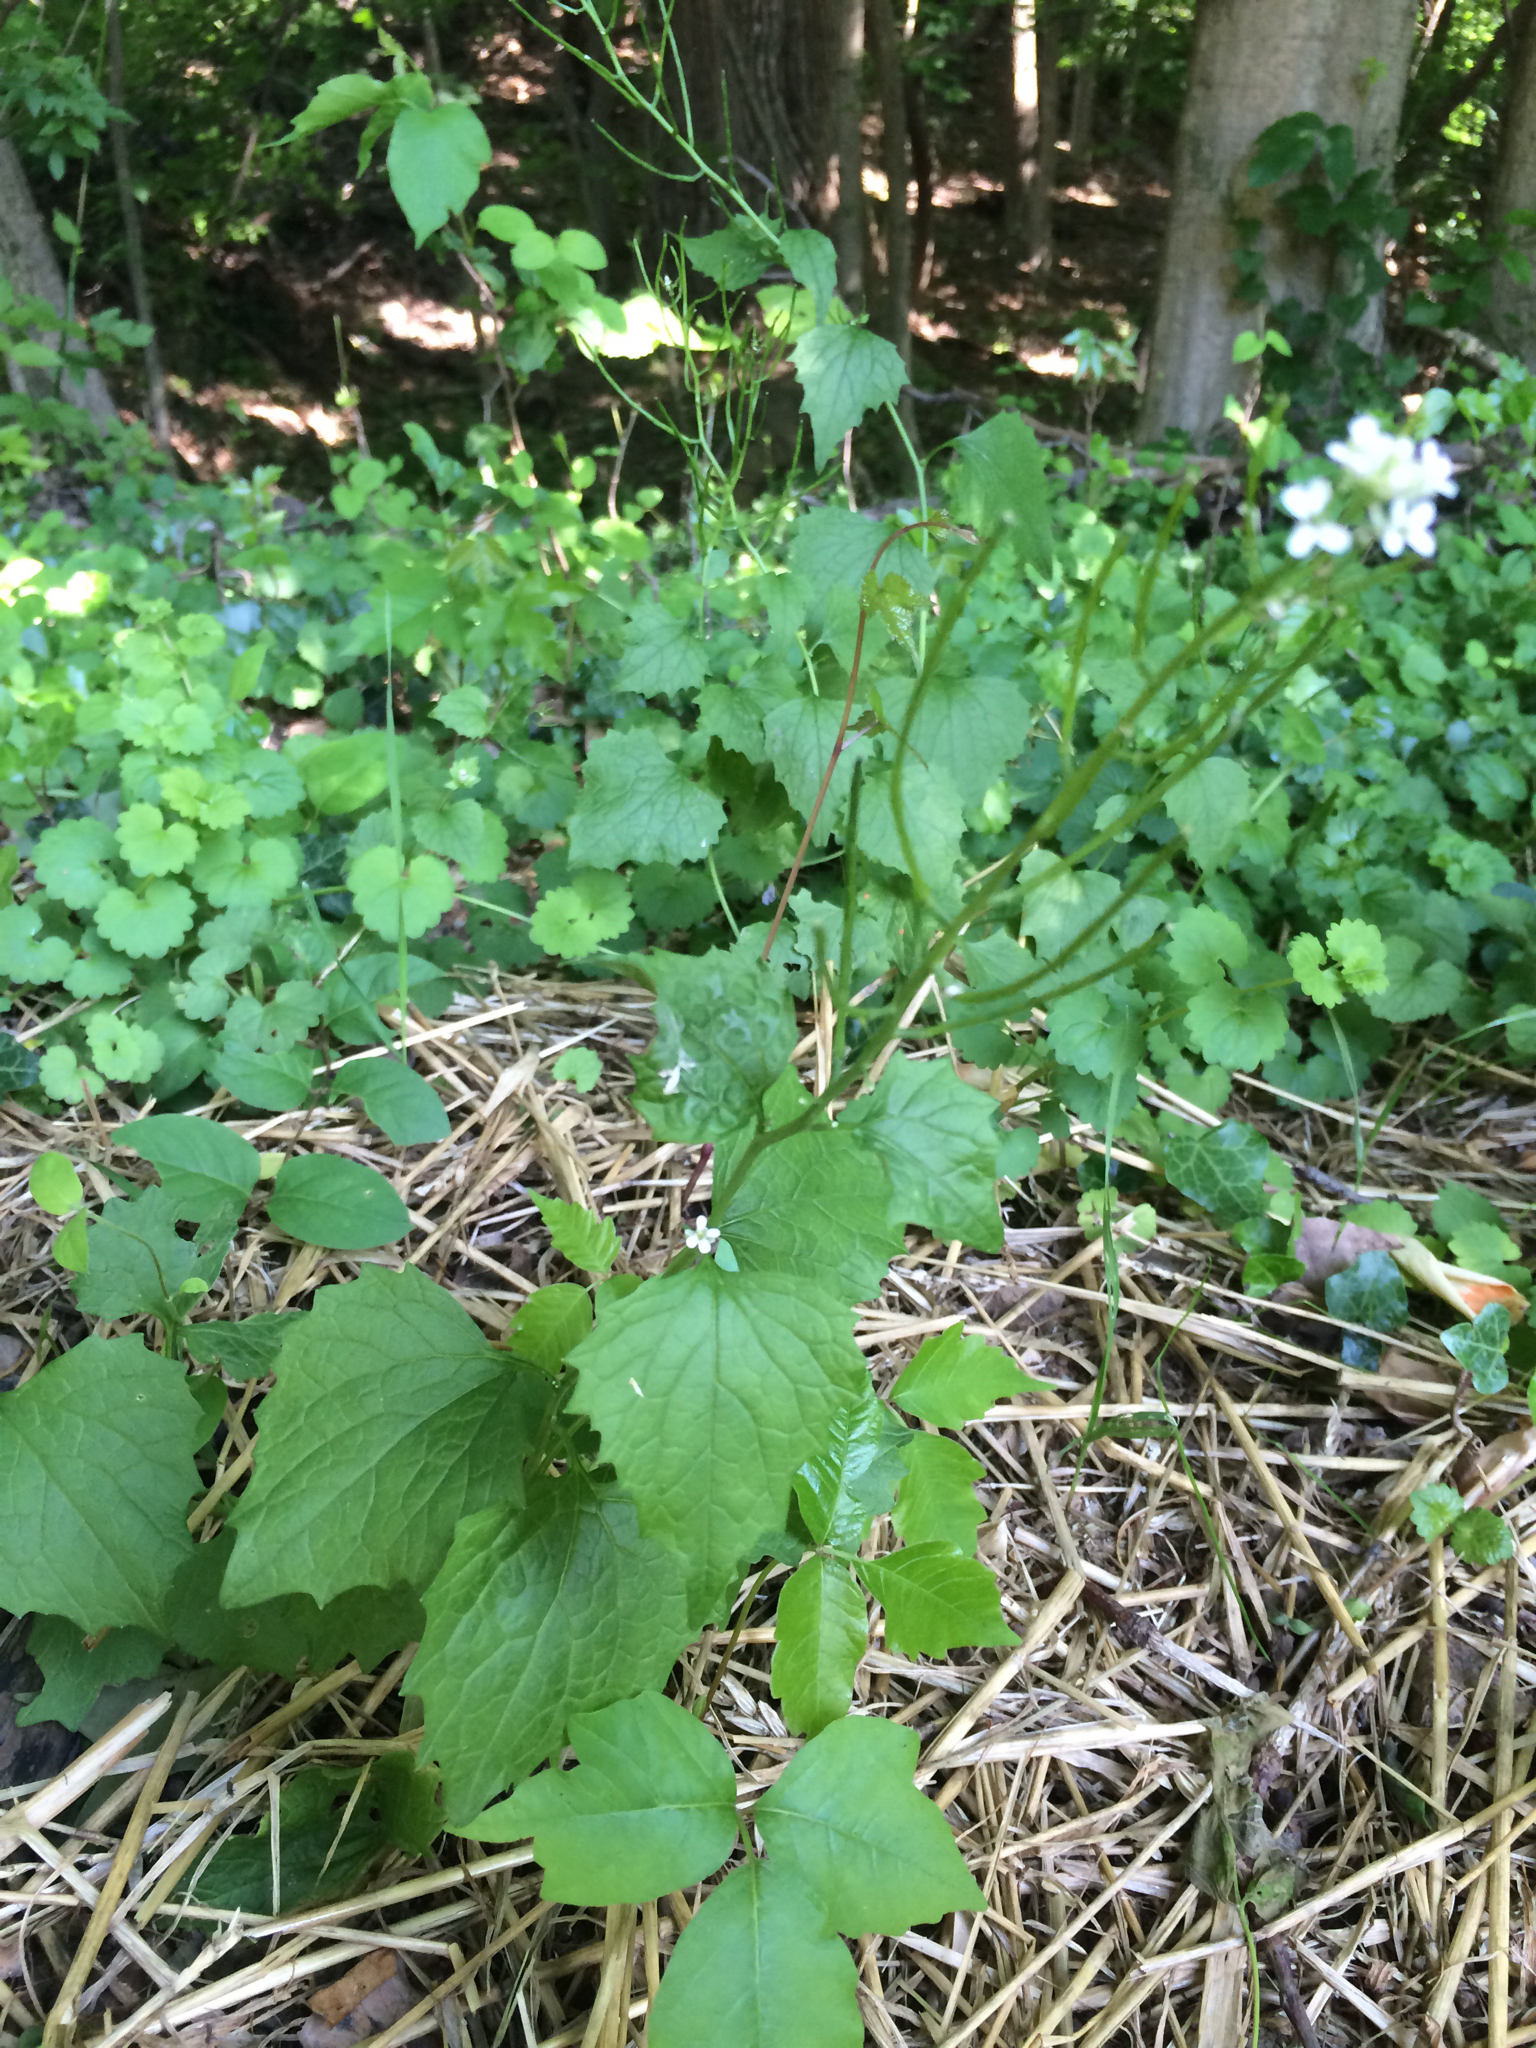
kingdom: Plantae
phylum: Tracheophyta
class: Magnoliopsida
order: Brassicales
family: Brassicaceae
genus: Alliaria
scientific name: Alliaria petiolata
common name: Garlic mustard
